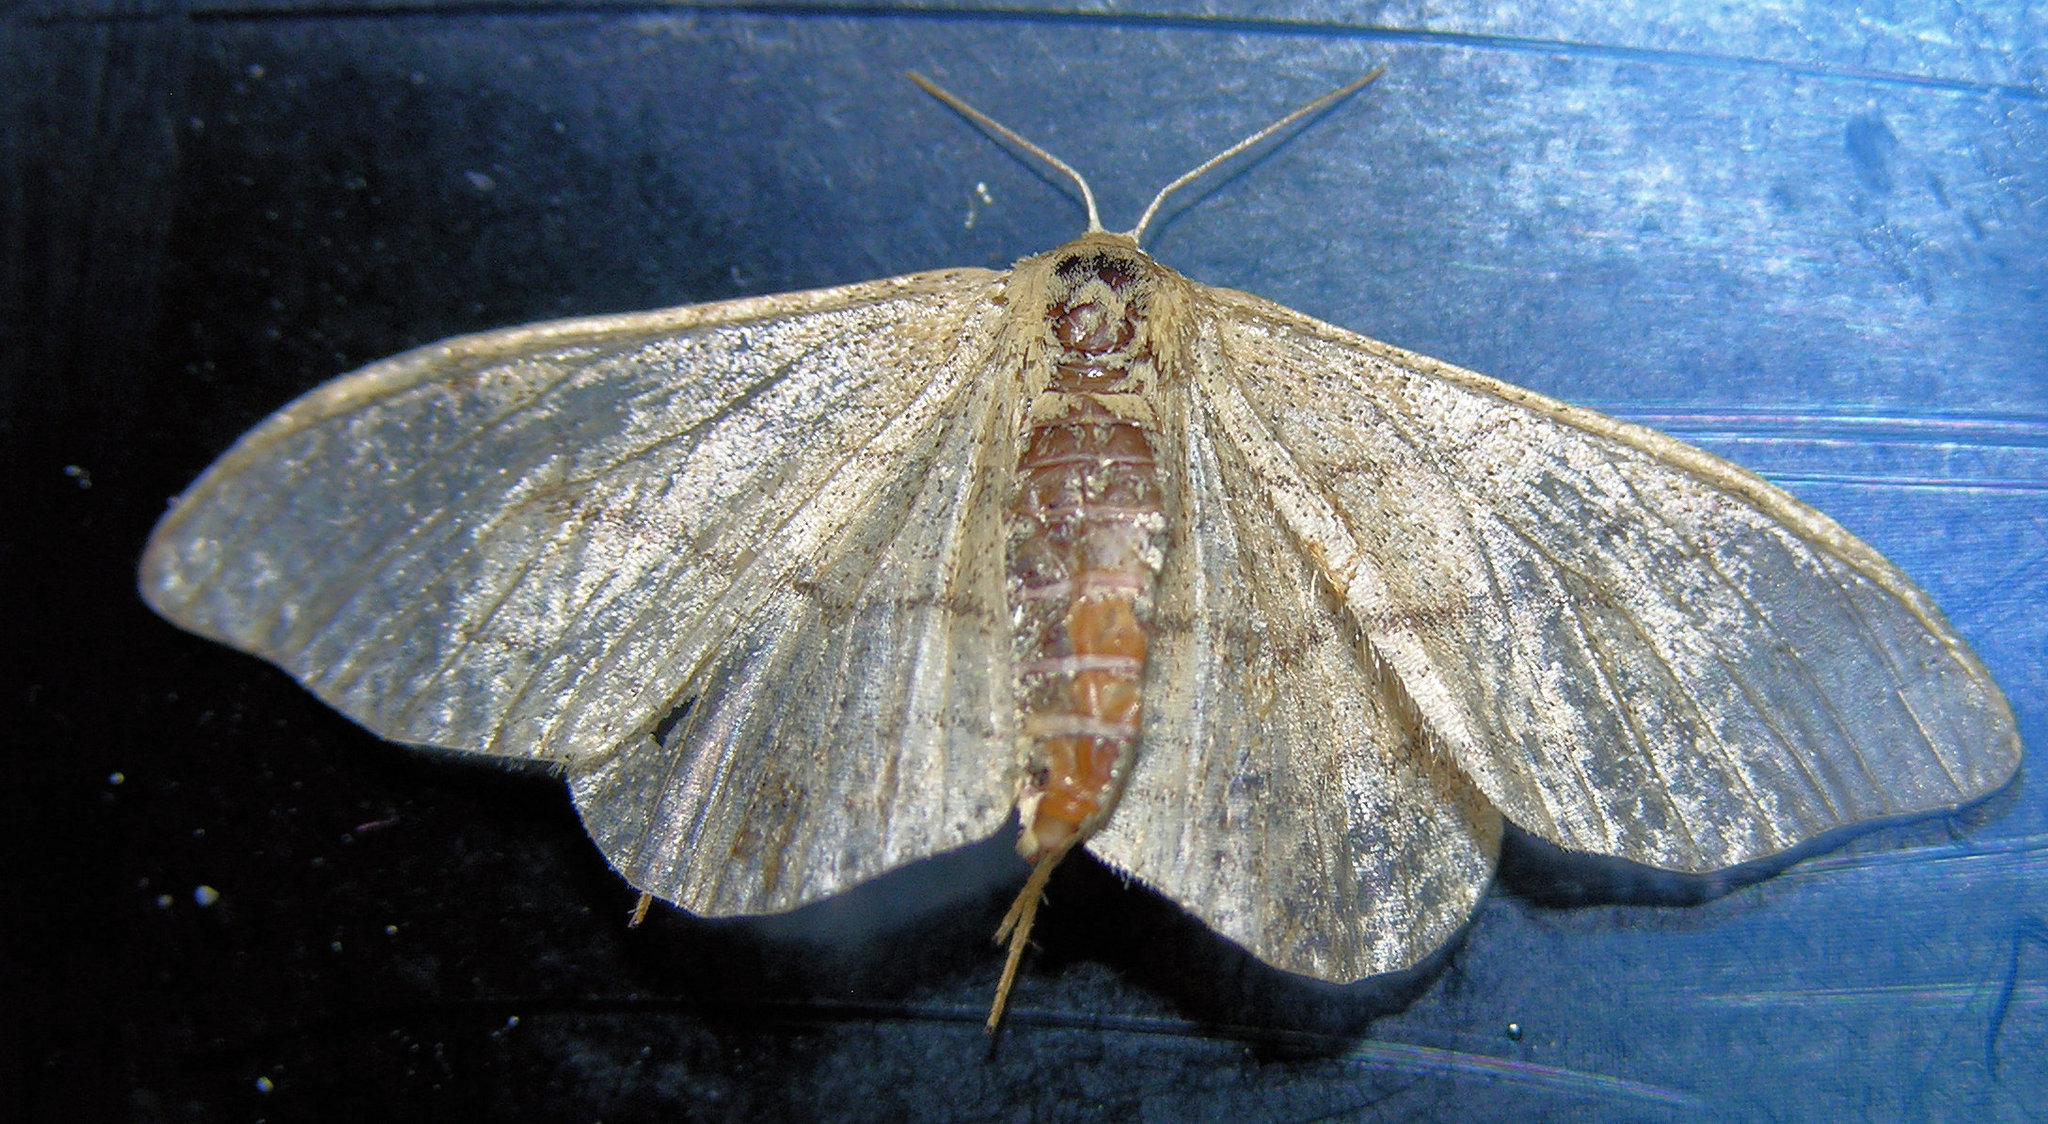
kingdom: Animalia
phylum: Arthropoda
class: Insecta
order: Lepidoptera
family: Geometridae
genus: Idaea
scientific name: Idaea aversata
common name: Riband wave
